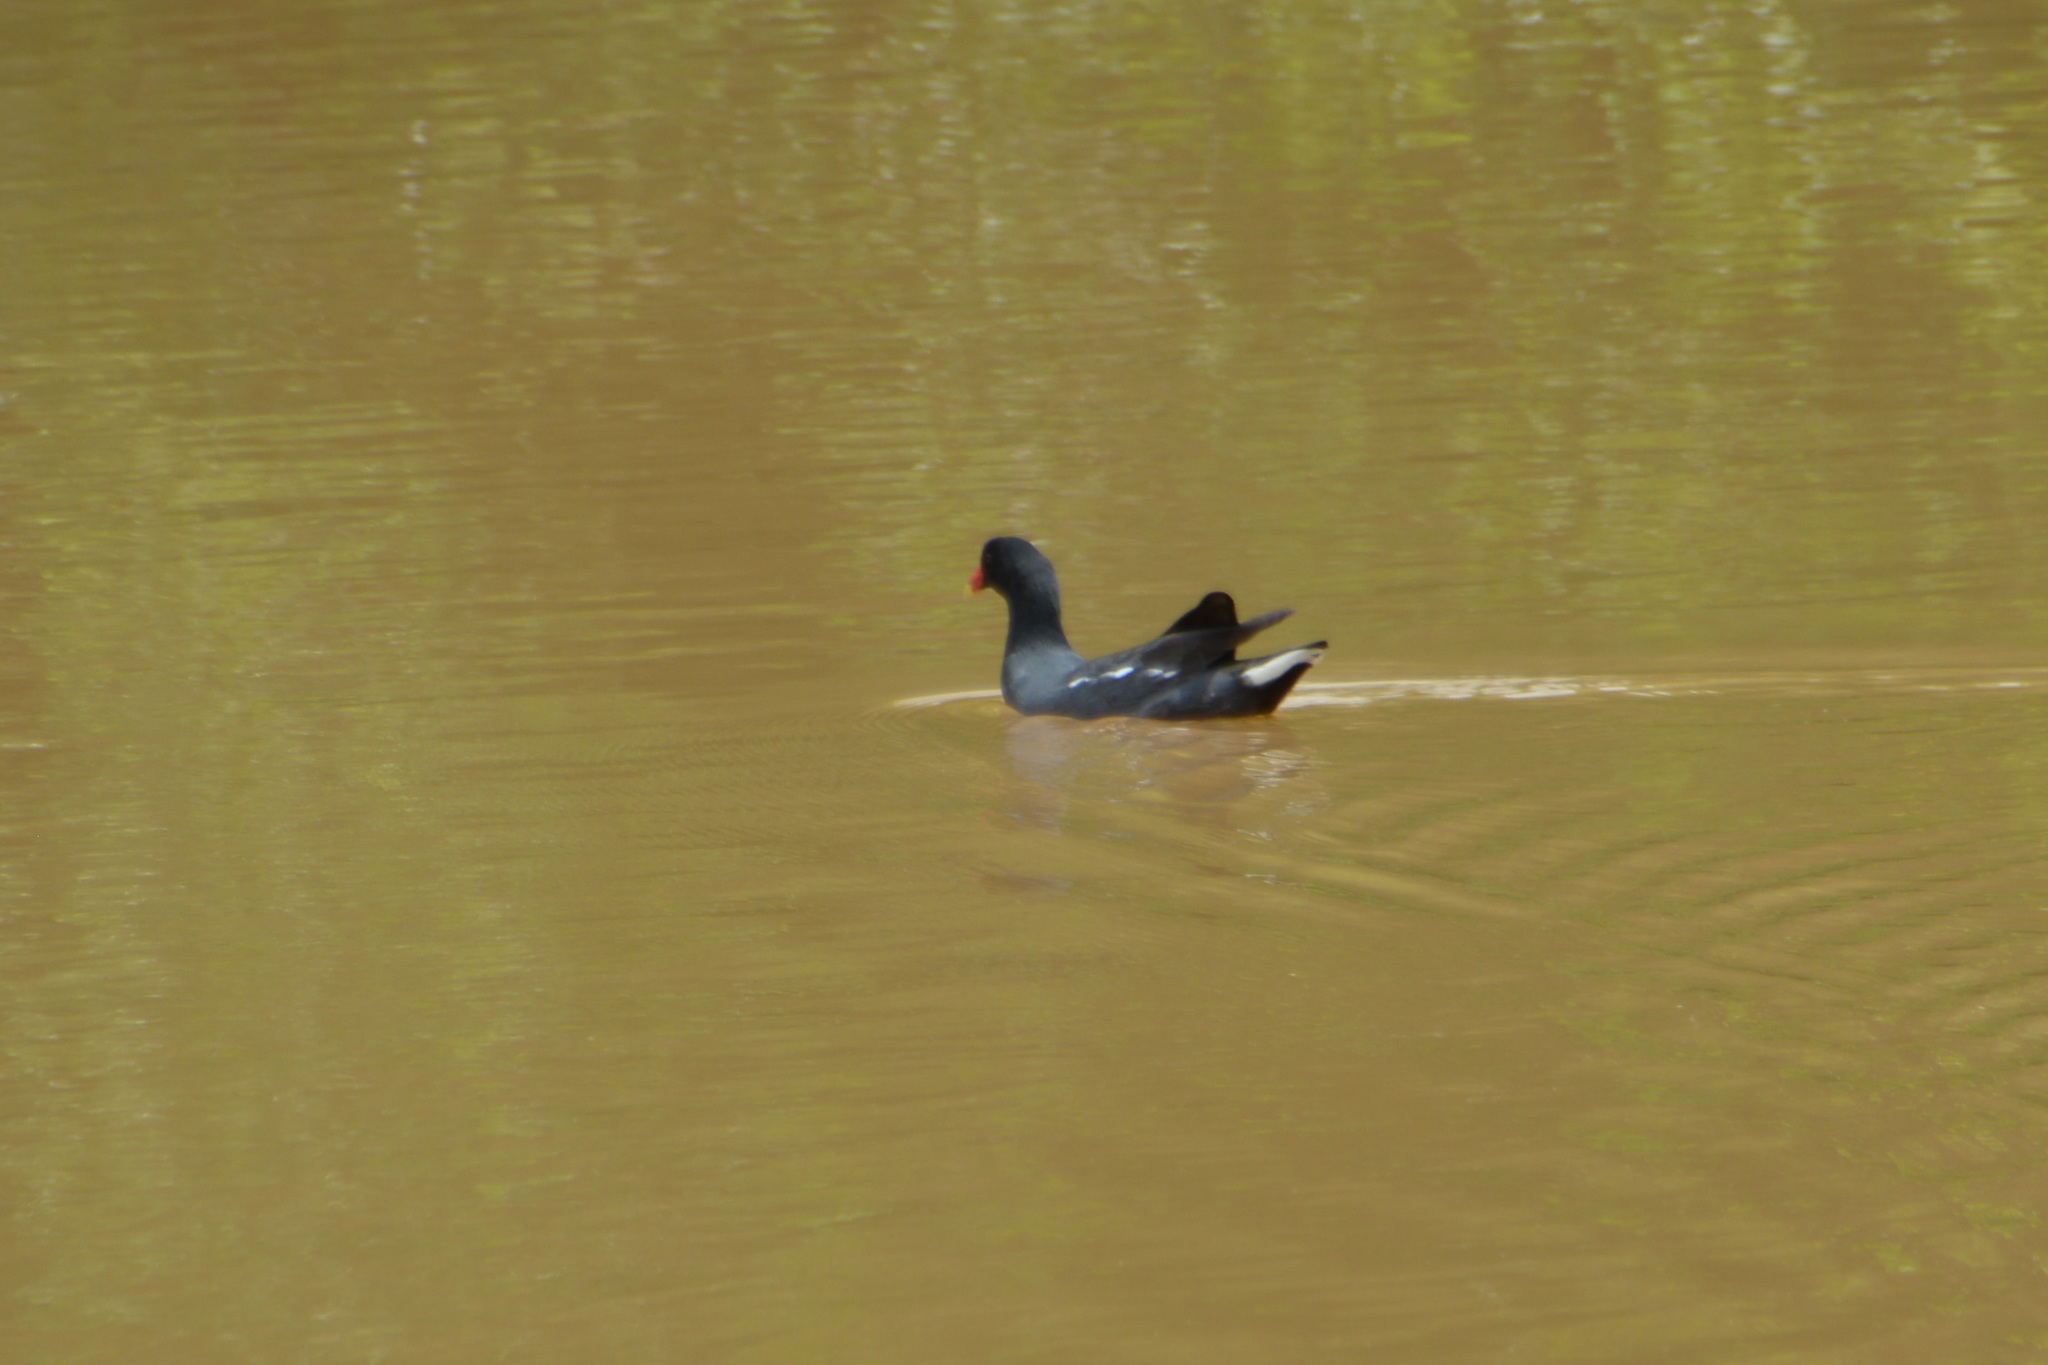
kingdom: Animalia
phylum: Chordata
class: Aves
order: Gruiformes
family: Rallidae
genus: Gallinula
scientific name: Gallinula chloropus
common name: Common moorhen
